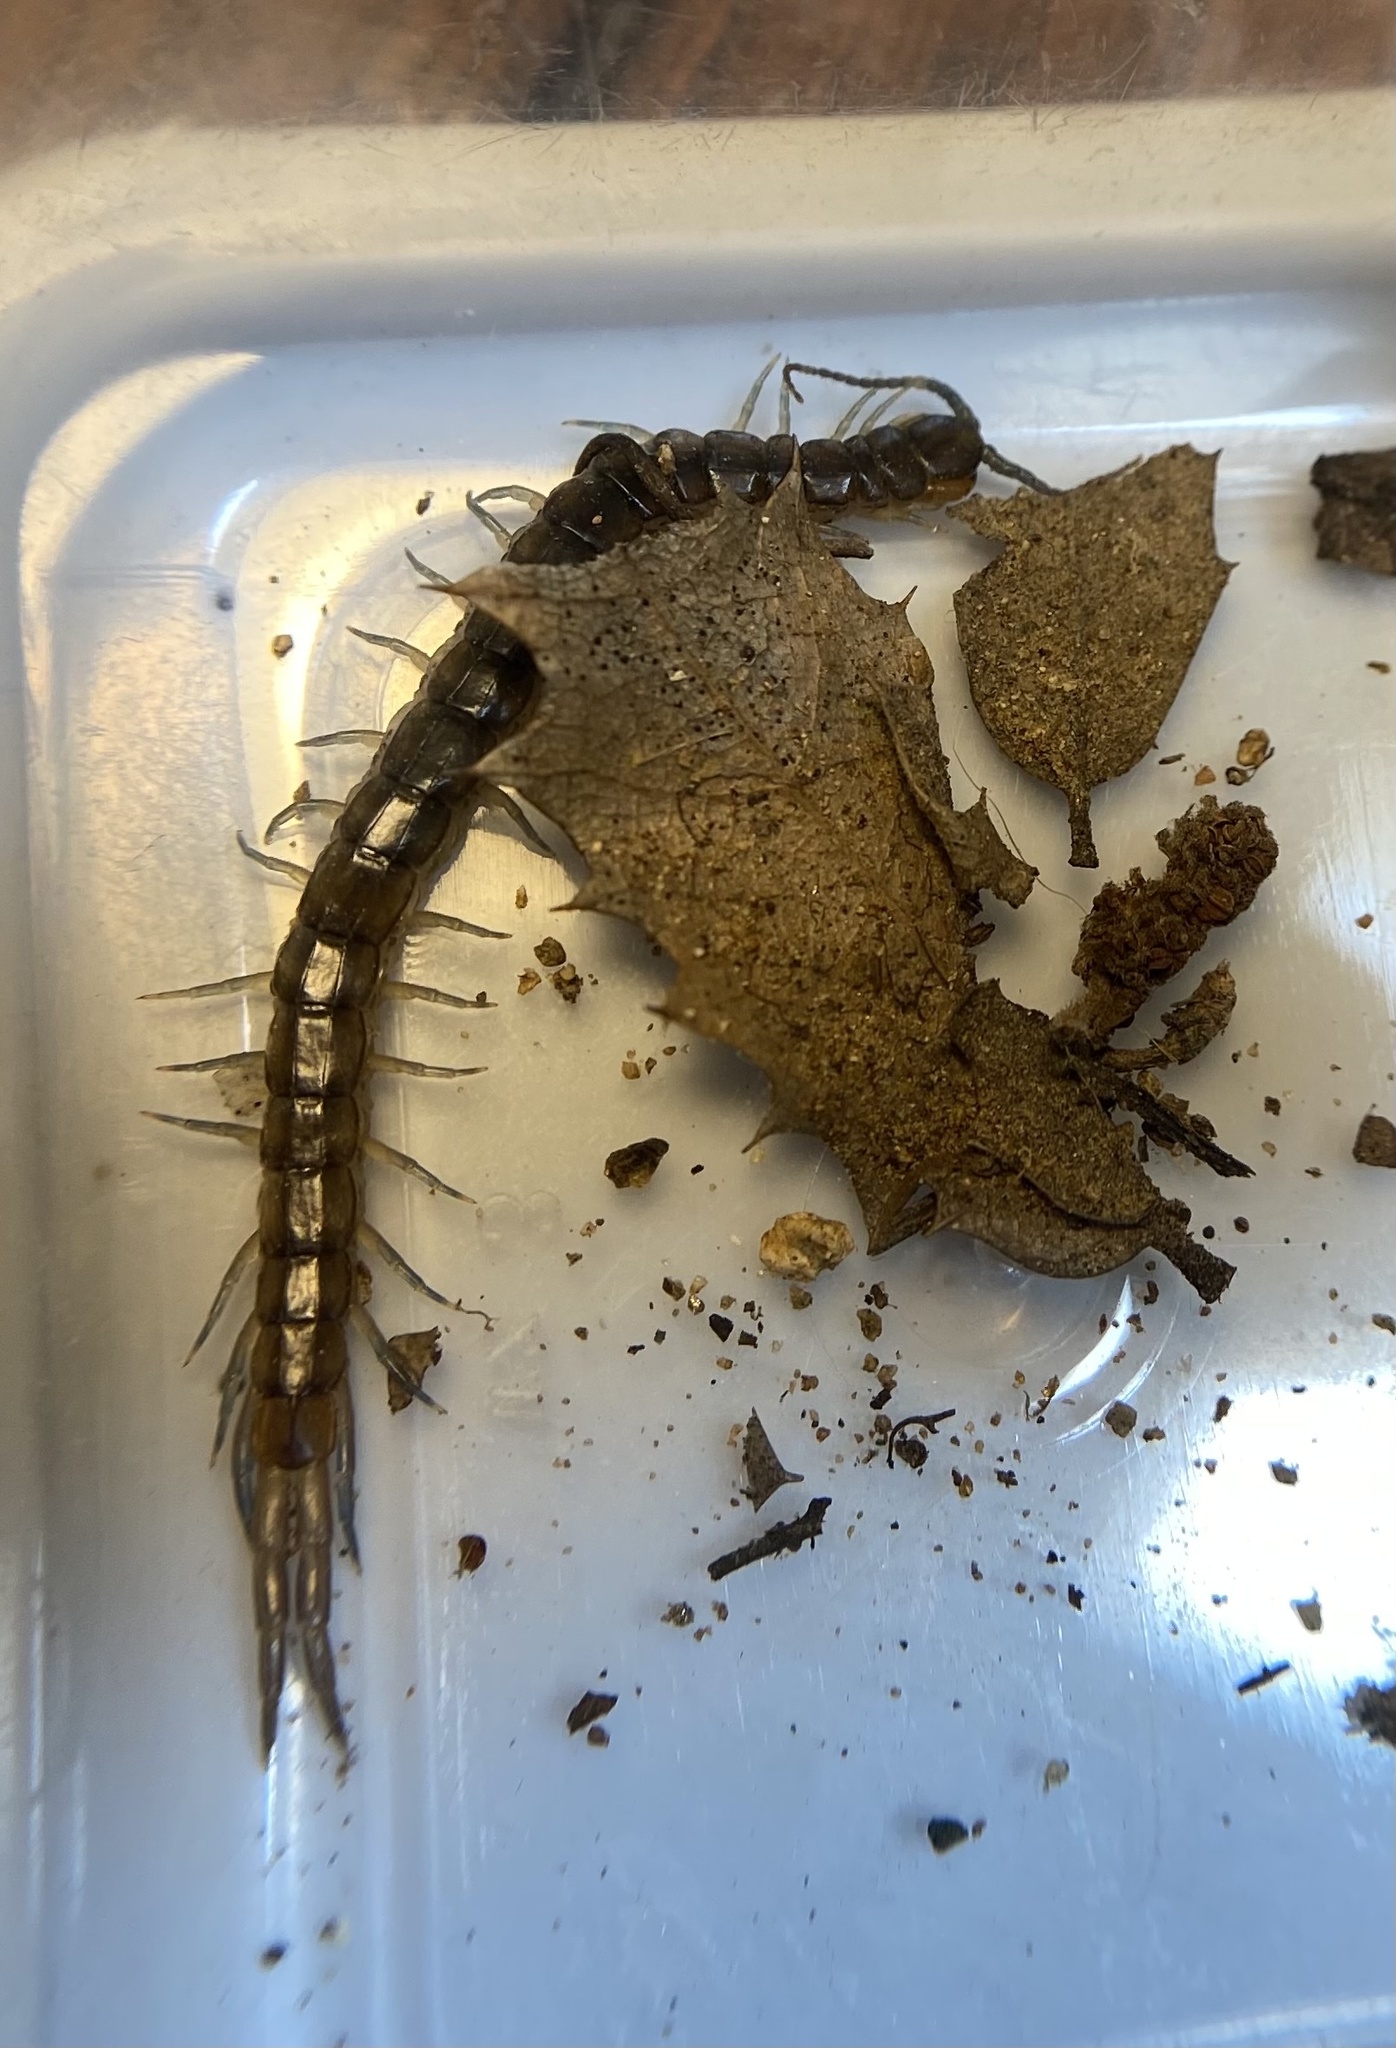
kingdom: Animalia
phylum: Arthropoda
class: Chilopoda
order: Scolopendromorpha
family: Scolopendridae
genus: Scolopendra
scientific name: Scolopendra viridis
